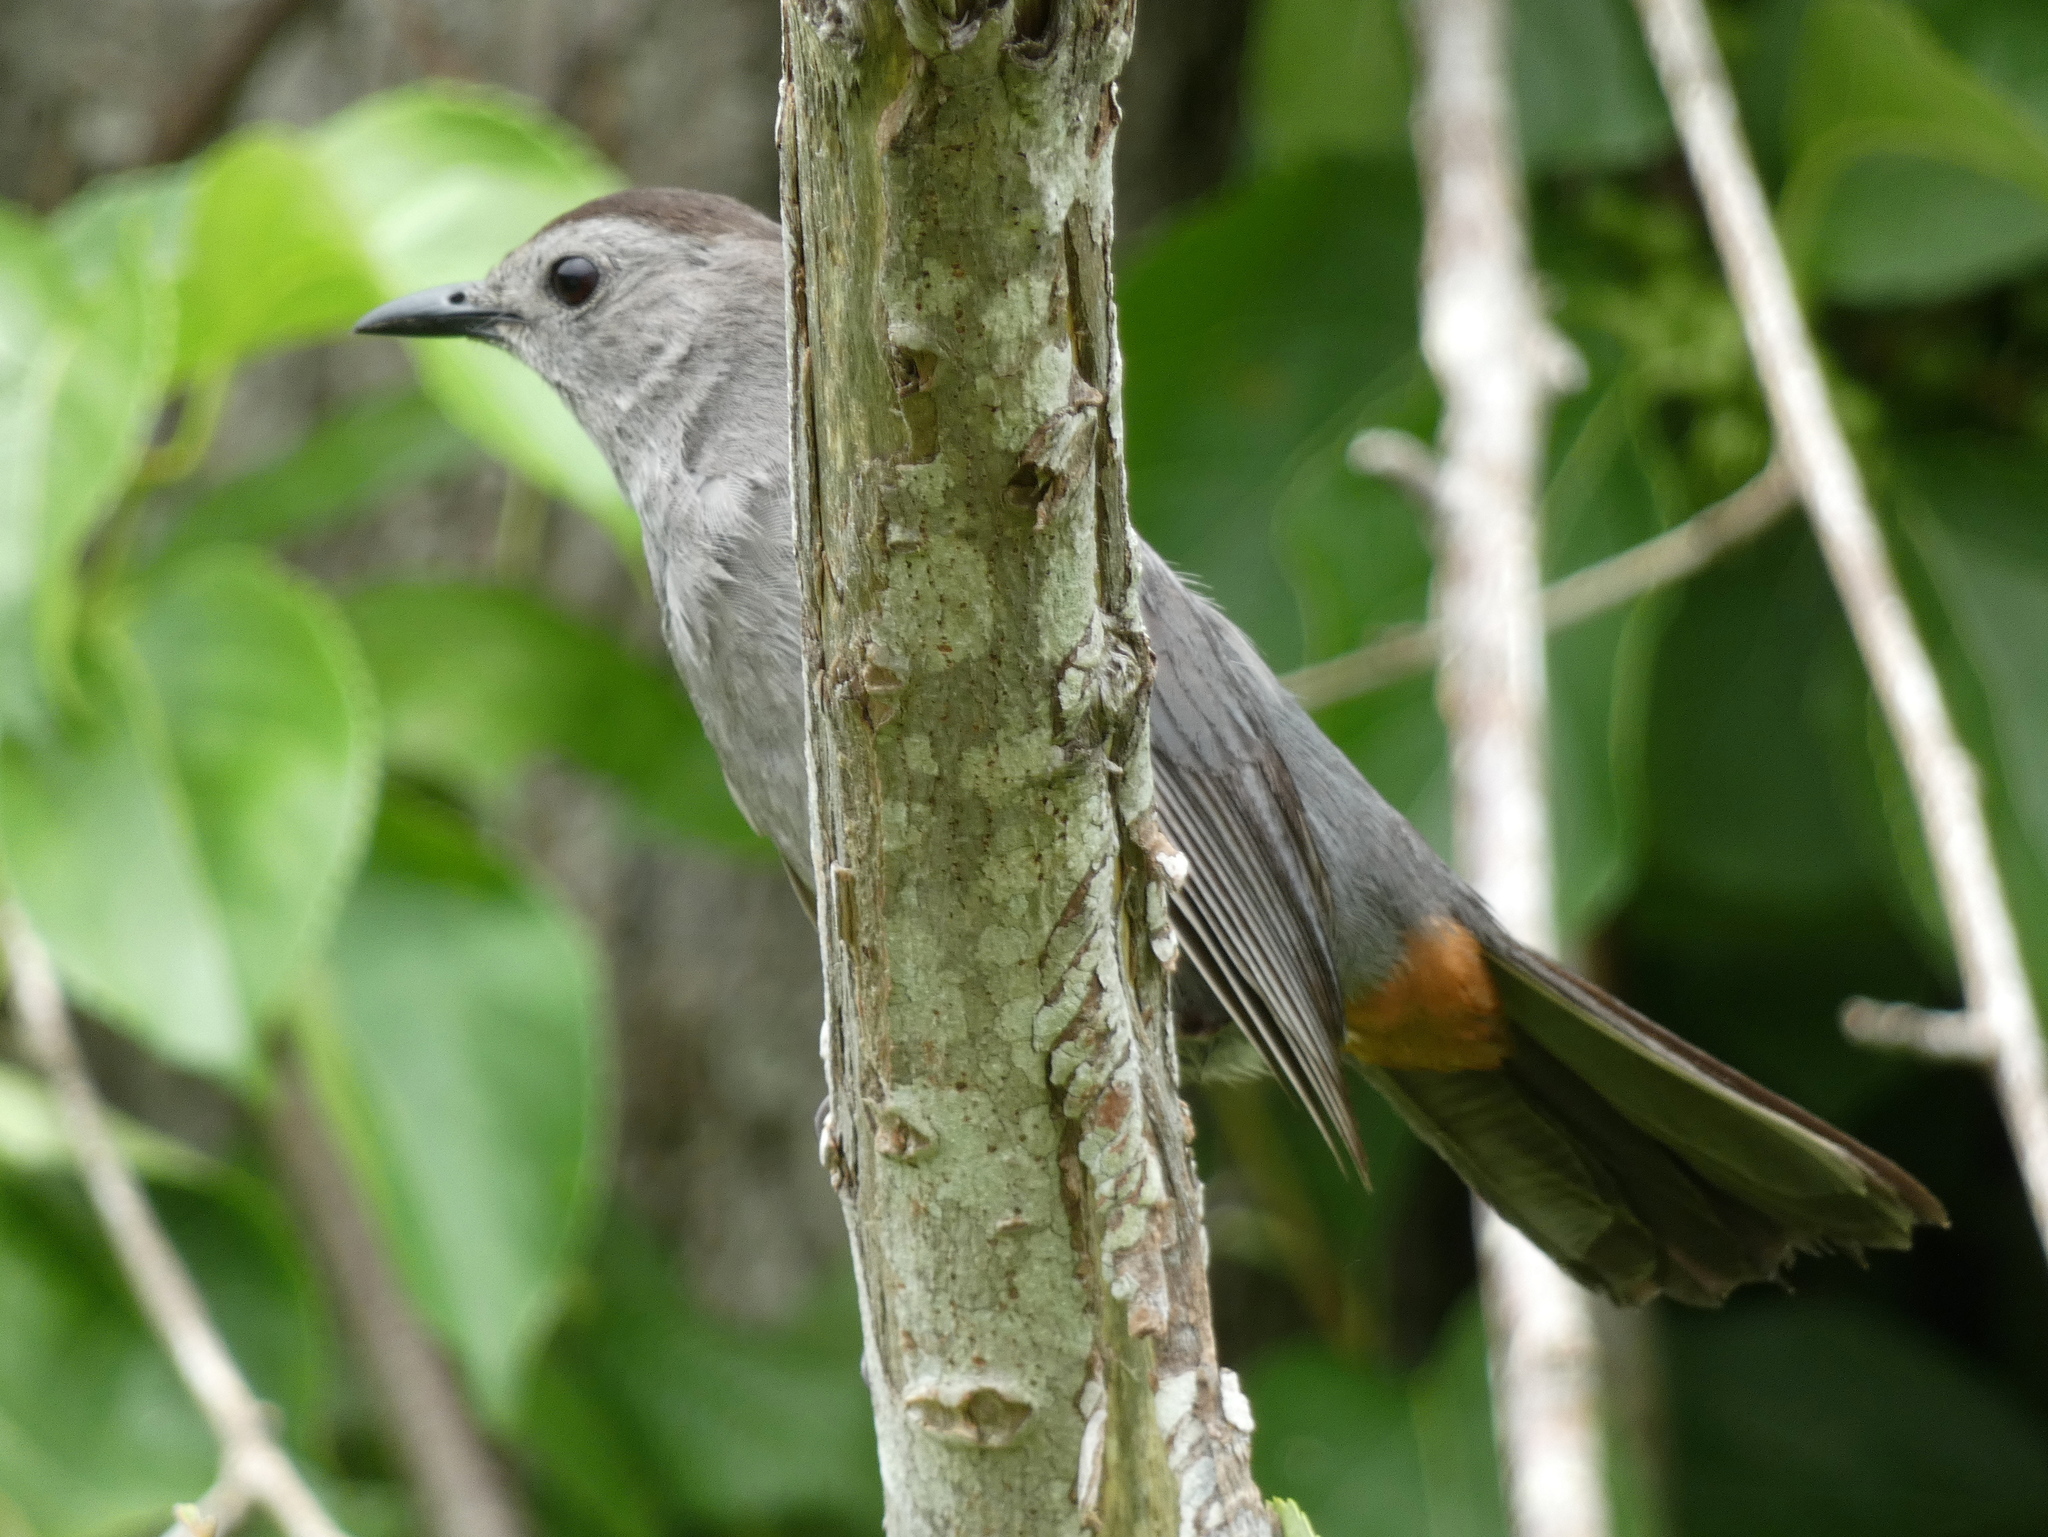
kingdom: Animalia
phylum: Chordata
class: Aves
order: Passeriformes
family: Mimidae
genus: Dumetella
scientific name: Dumetella carolinensis
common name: Gray catbird
